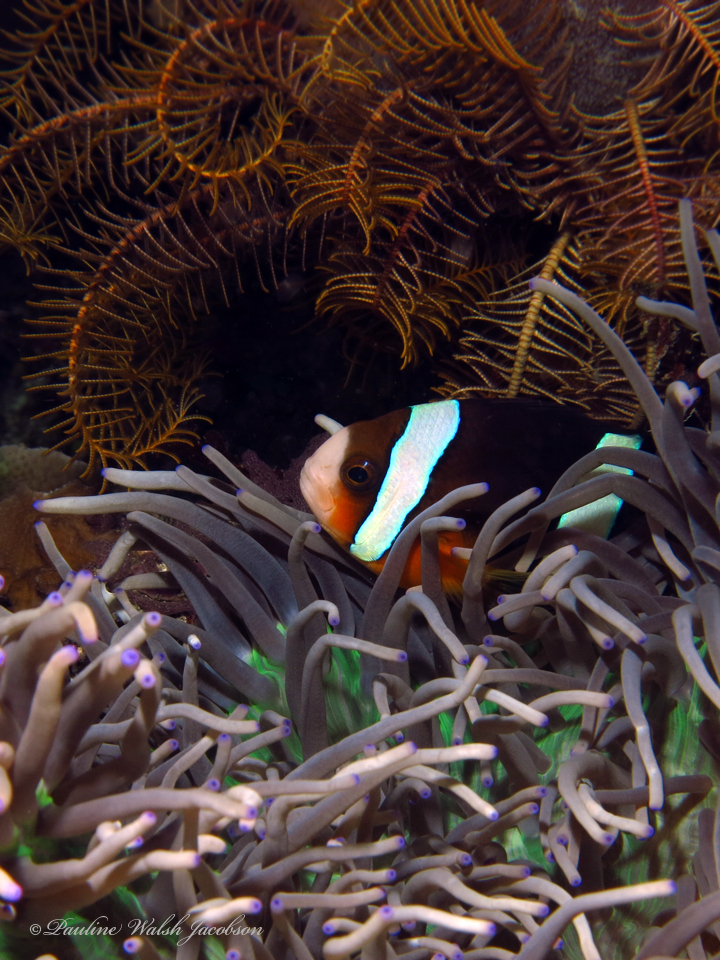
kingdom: Animalia
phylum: Chordata
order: Perciformes
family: Pomacentridae
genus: Amphiprion
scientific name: Amphiprion clarkii
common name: Clark's anemonefish
